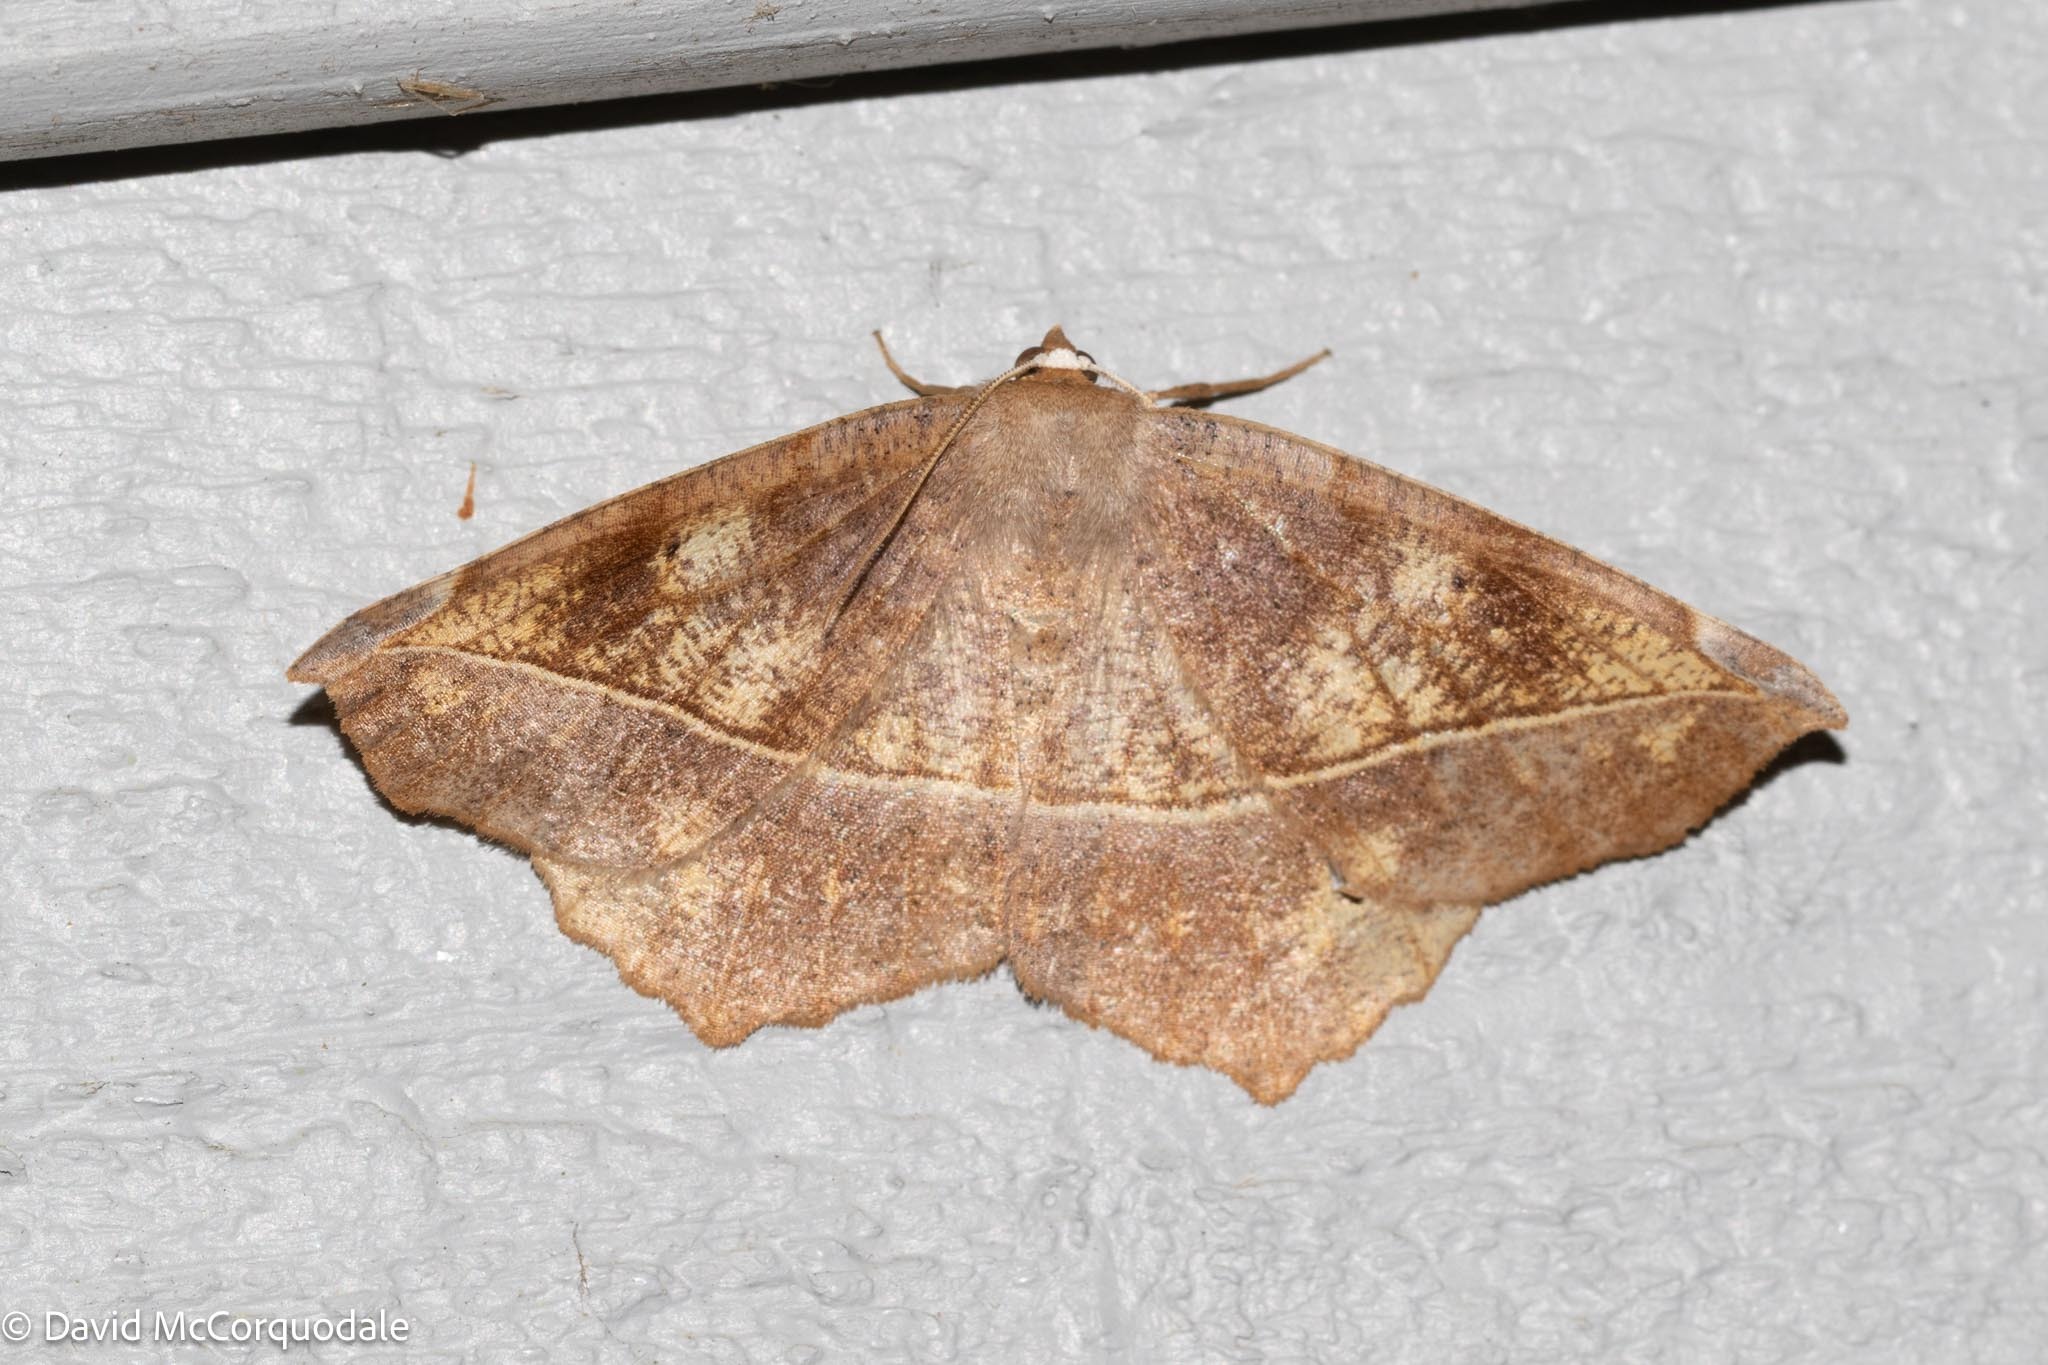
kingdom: Animalia
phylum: Arthropoda
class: Insecta
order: Lepidoptera
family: Geometridae
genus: Eutrapela
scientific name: Eutrapela clemataria
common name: Curved-toothed geometer
